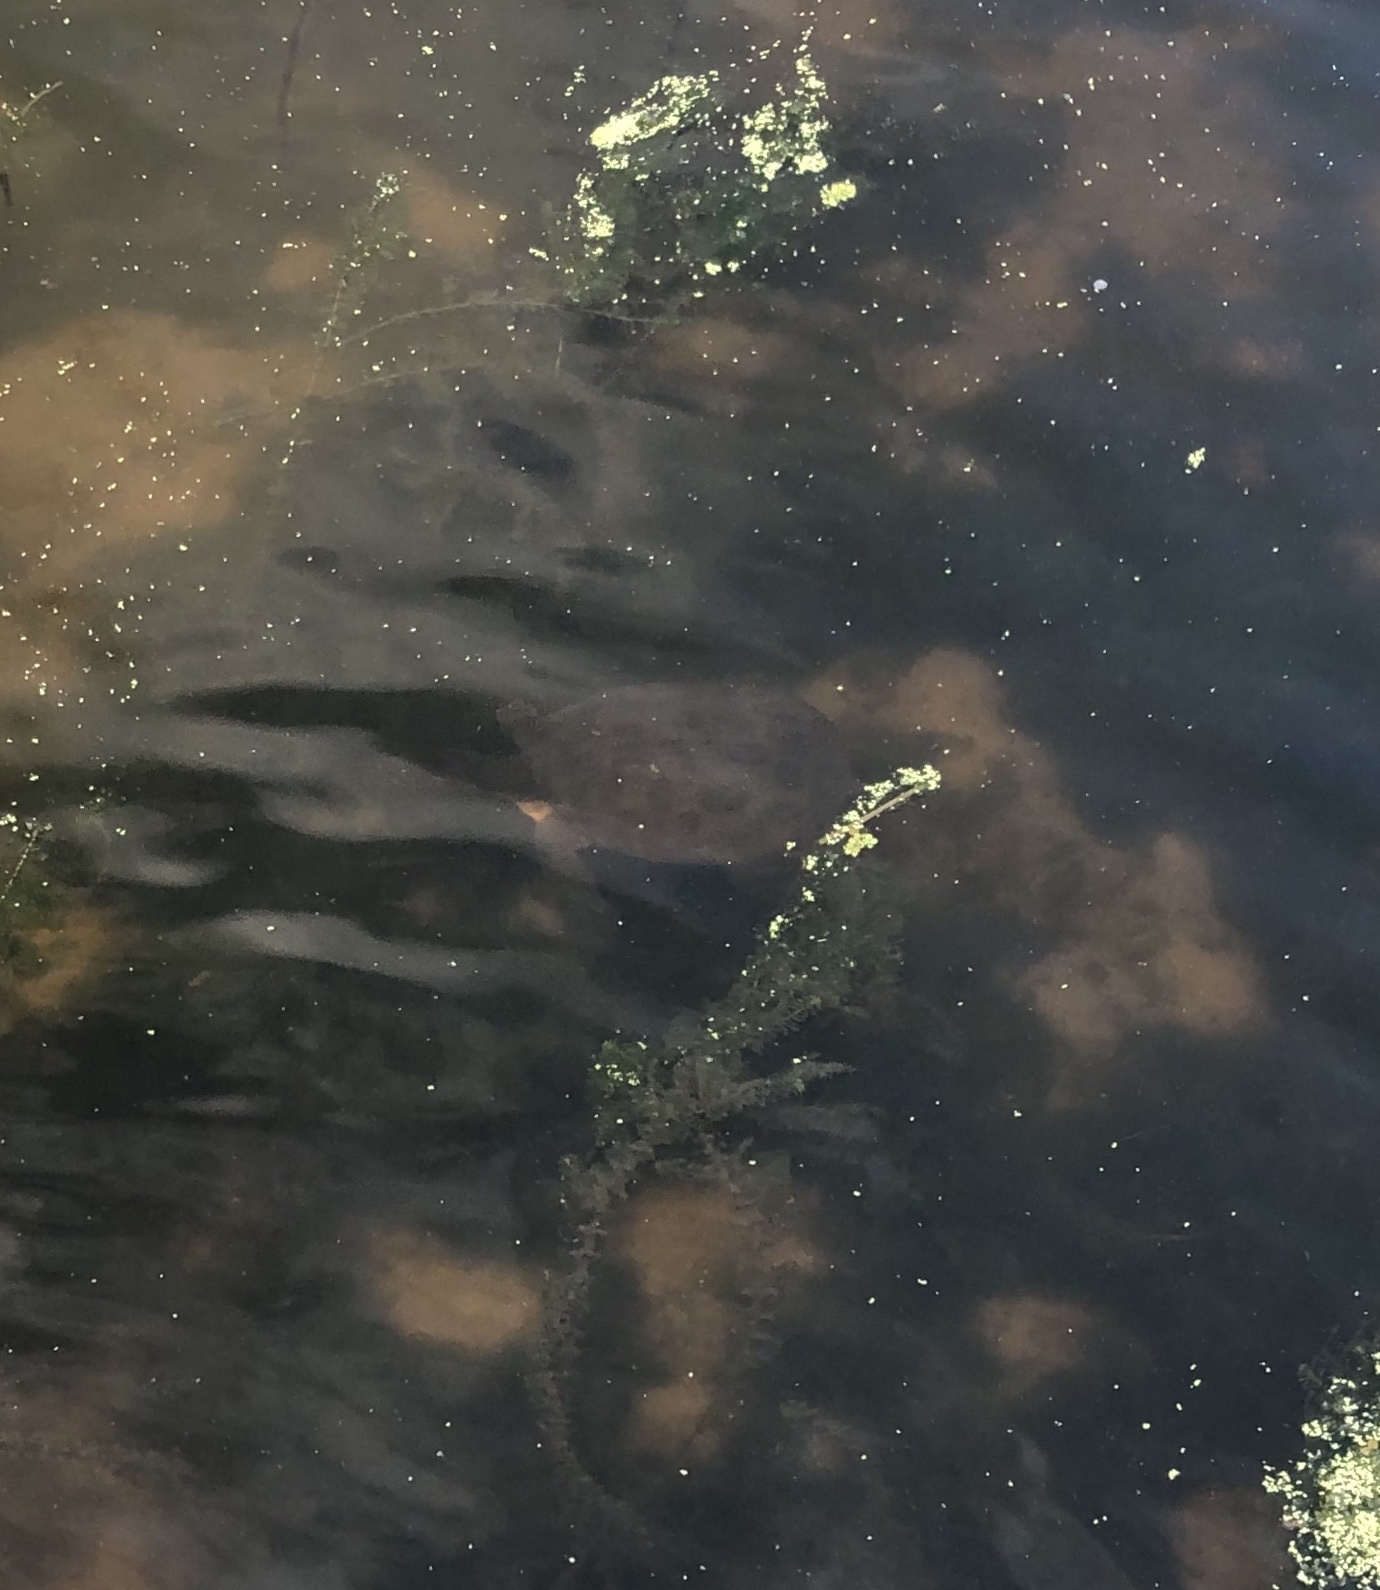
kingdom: Animalia
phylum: Chordata
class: Testudines
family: Trionychidae
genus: Apalone
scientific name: Apalone ferox
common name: Florida softshell turtle
